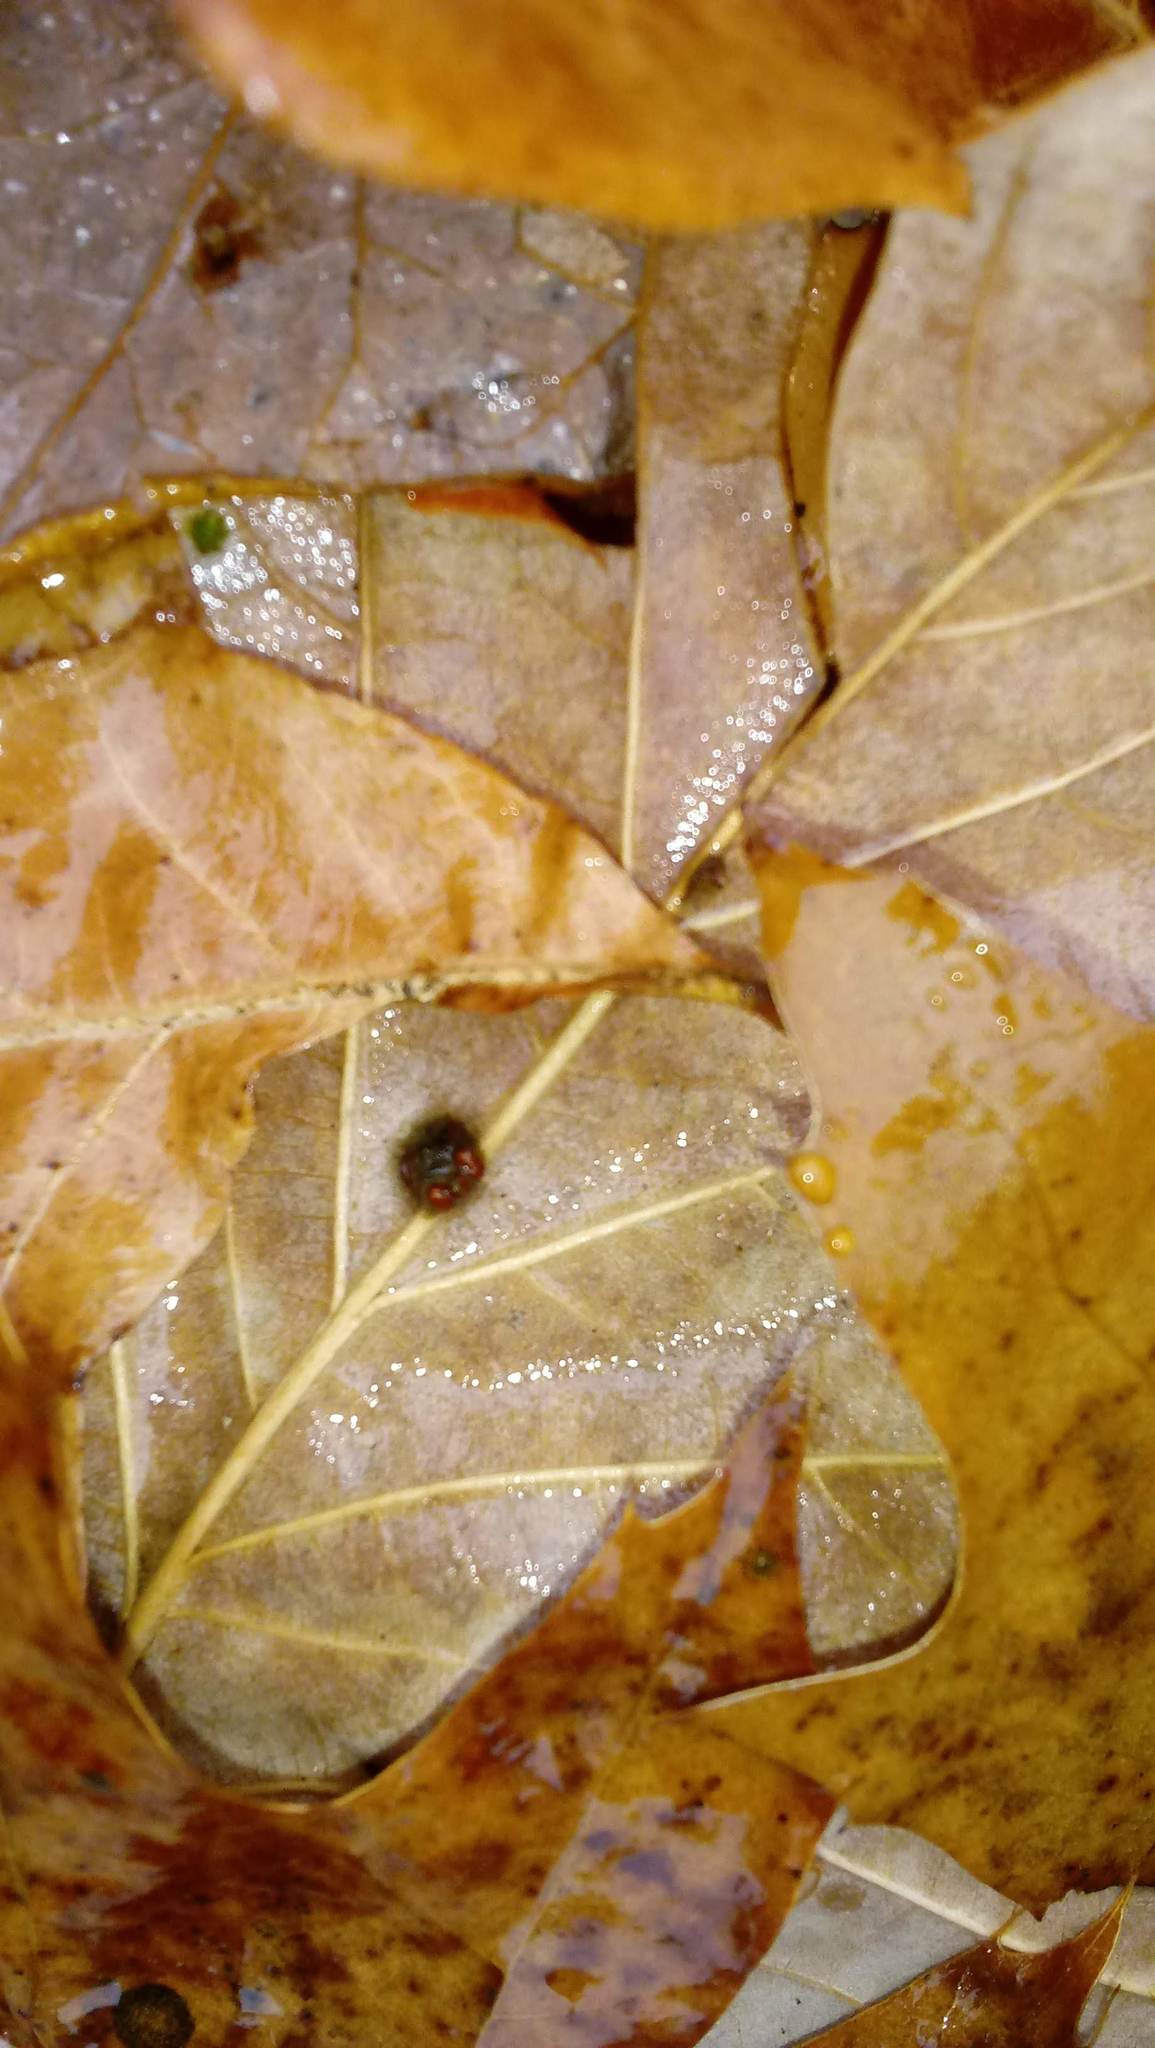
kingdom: Animalia
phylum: Arthropoda
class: Insecta
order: Hymenoptera
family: Cynipidae
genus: Andricus
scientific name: Andricus Druon ignotum
